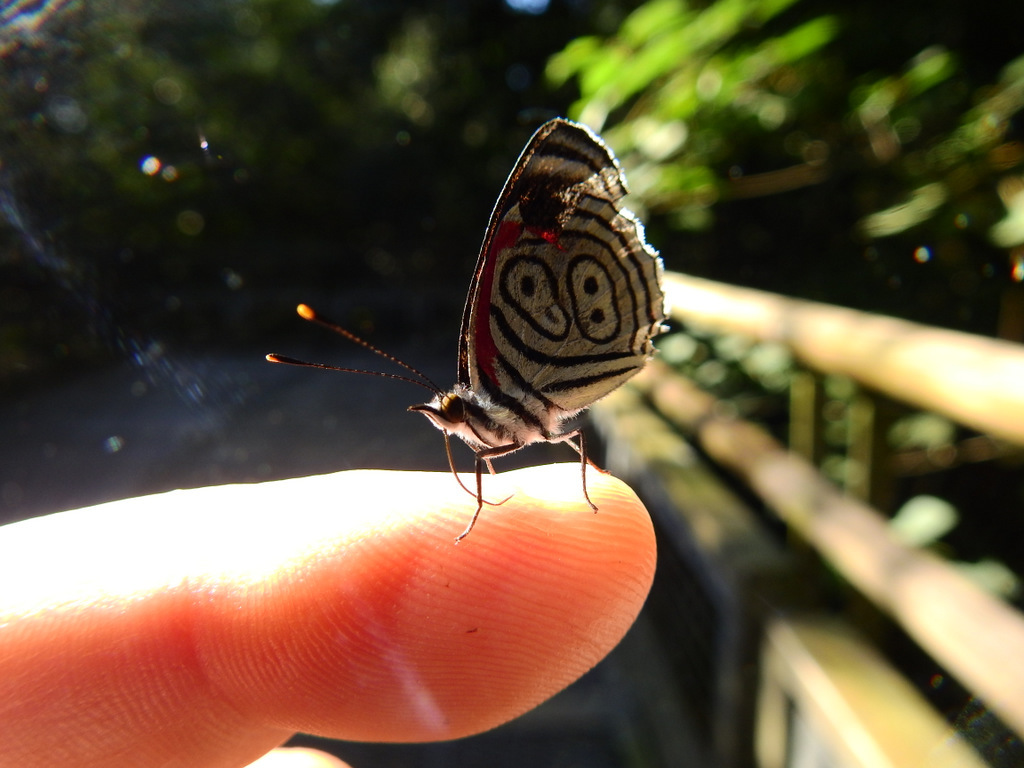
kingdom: Animalia
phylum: Arthropoda
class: Insecta
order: Lepidoptera
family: Nymphalidae
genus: Diaethria
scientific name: Diaethria clymena
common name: Widespread eighty-eight
